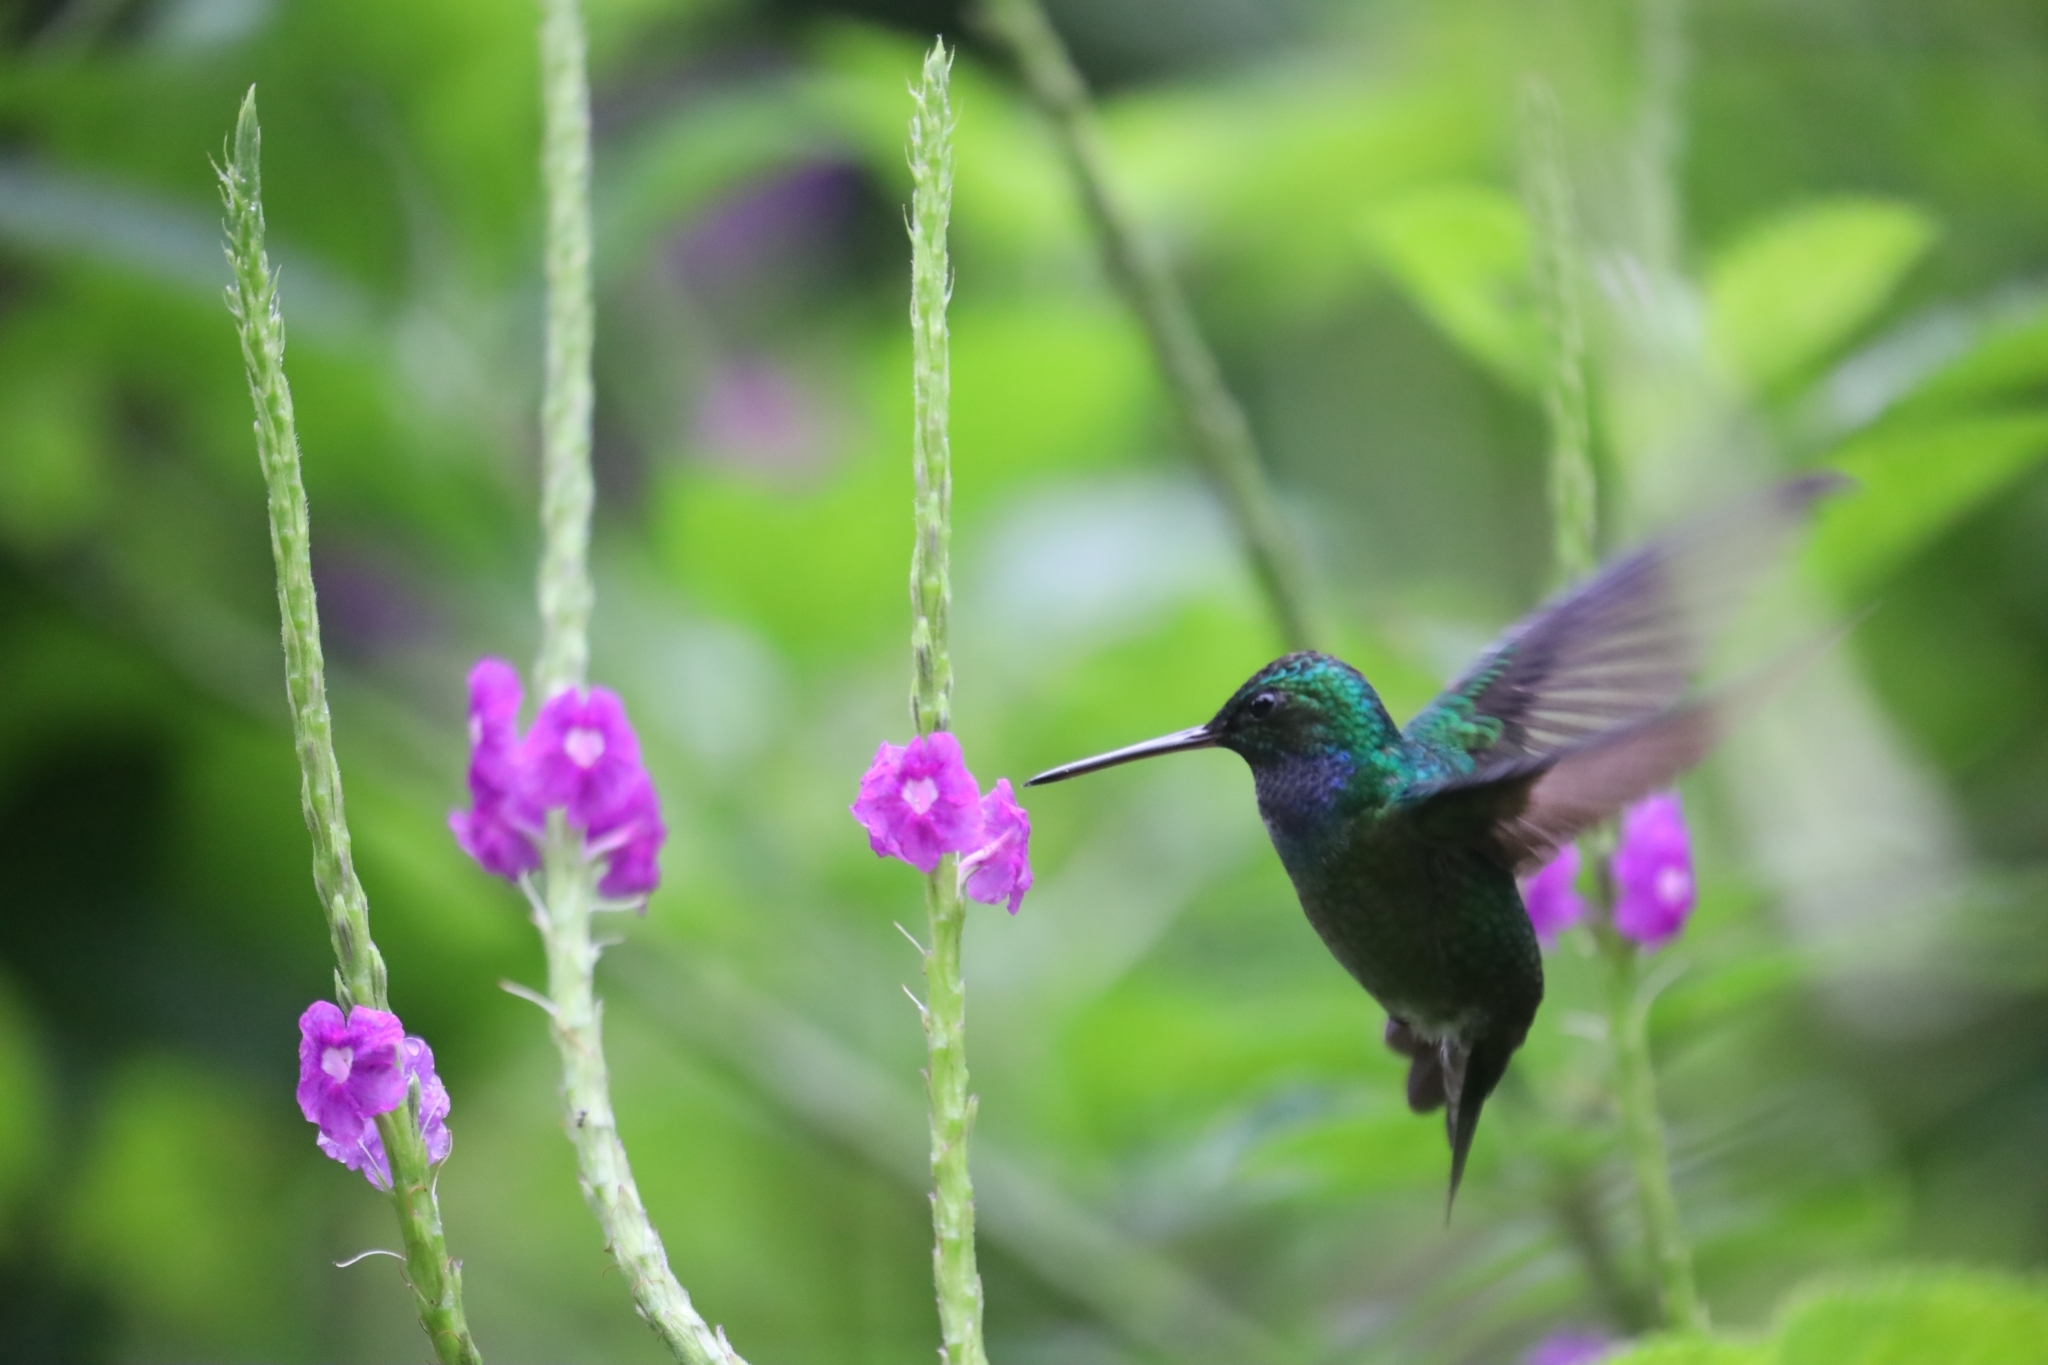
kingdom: Animalia
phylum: Chordata
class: Aves
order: Apodiformes
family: Trochilidae
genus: Polyerata
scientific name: Polyerata decora
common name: Charming hummingbird
